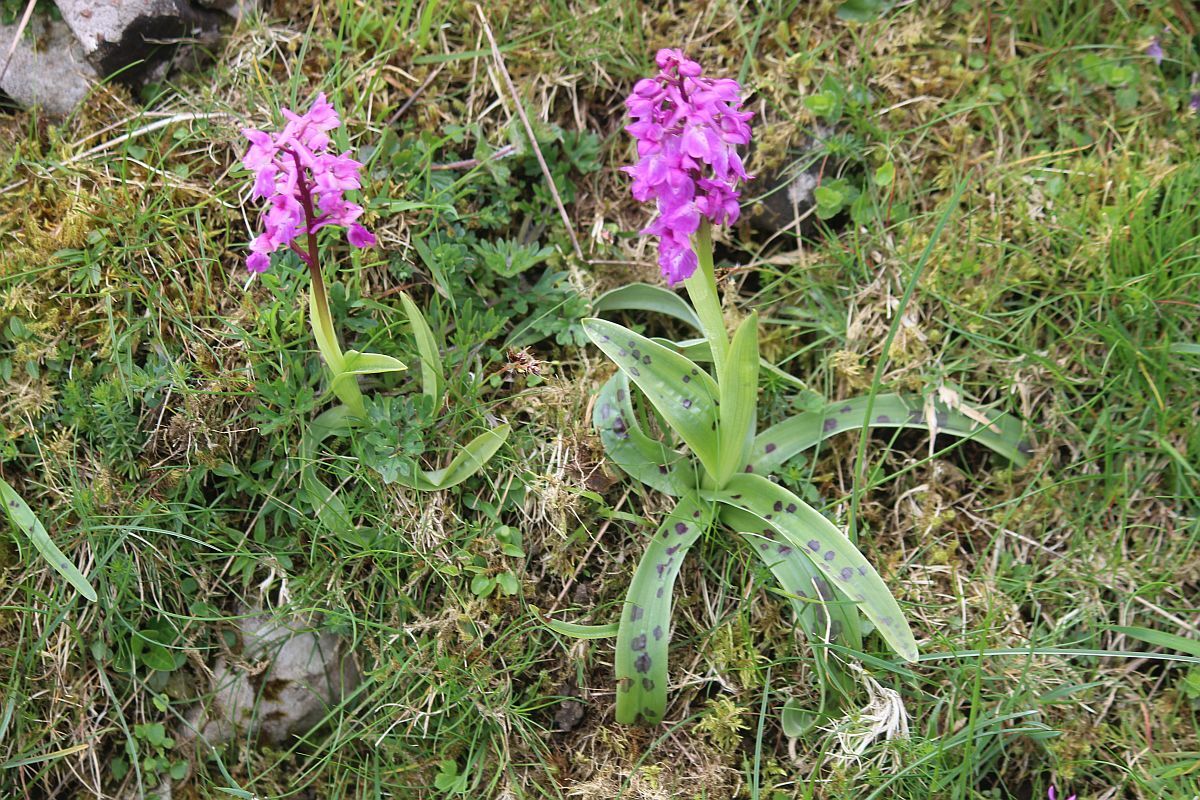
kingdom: Plantae
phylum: Tracheophyta
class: Liliopsida
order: Asparagales
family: Orchidaceae
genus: Orchis
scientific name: Orchis mascula
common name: Early-purple orchid
